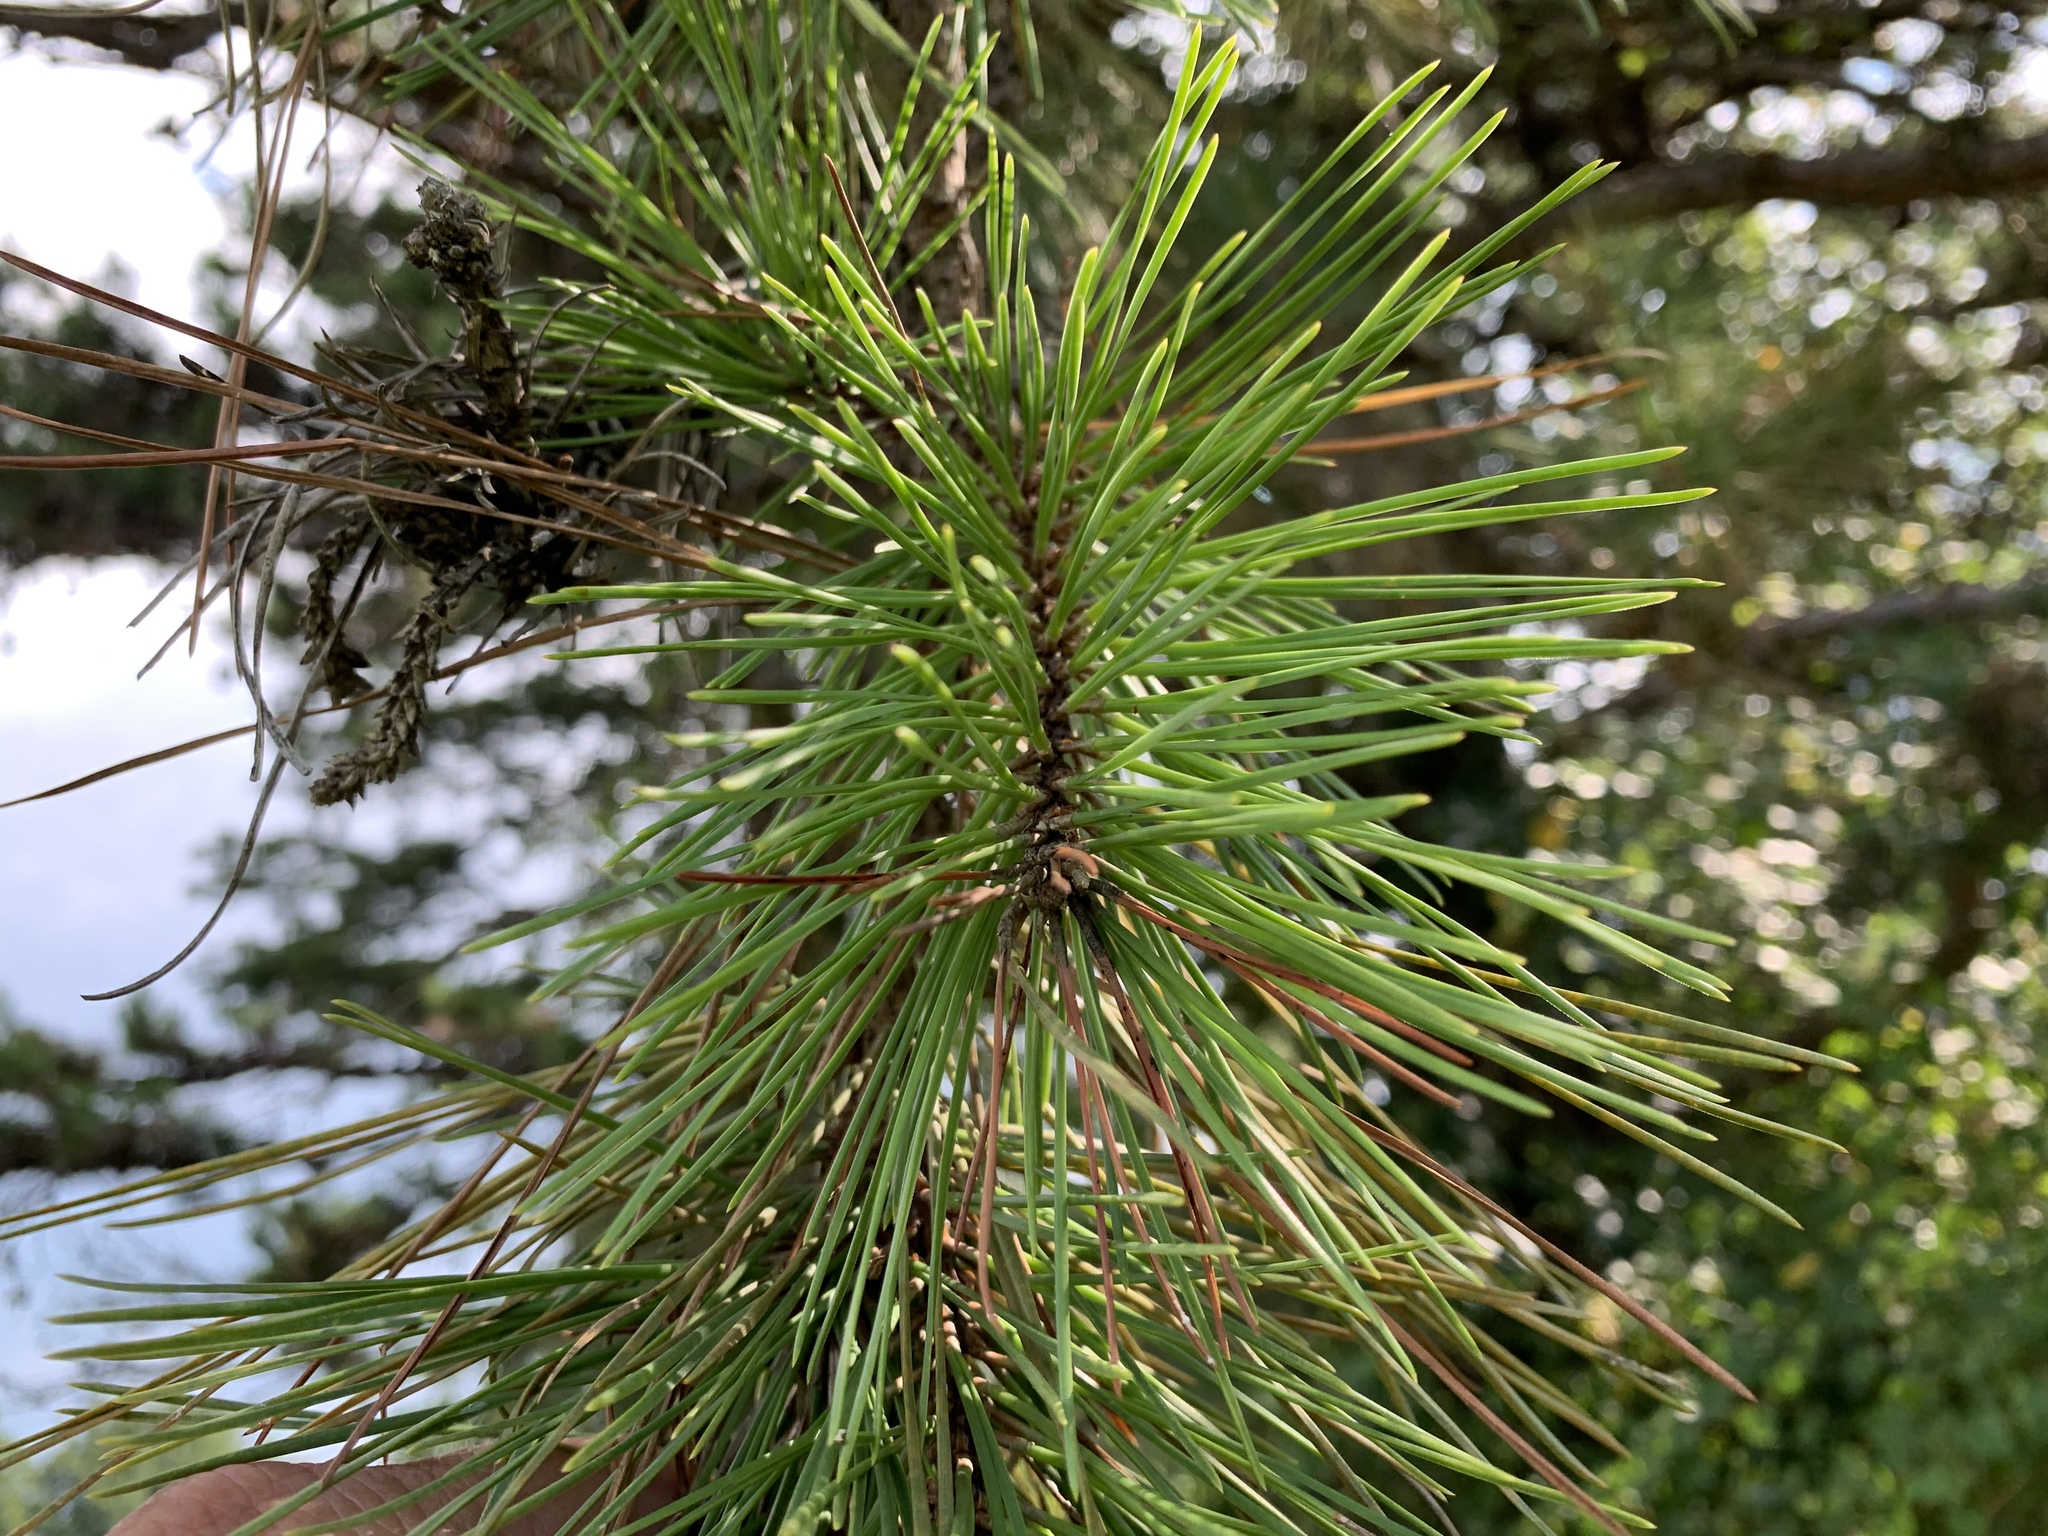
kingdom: Plantae
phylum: Tracheophyta
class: Pinopsida
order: Pinales
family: Pinaceae
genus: Pinus
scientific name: Pinus echinata
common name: Shortleaf pine
